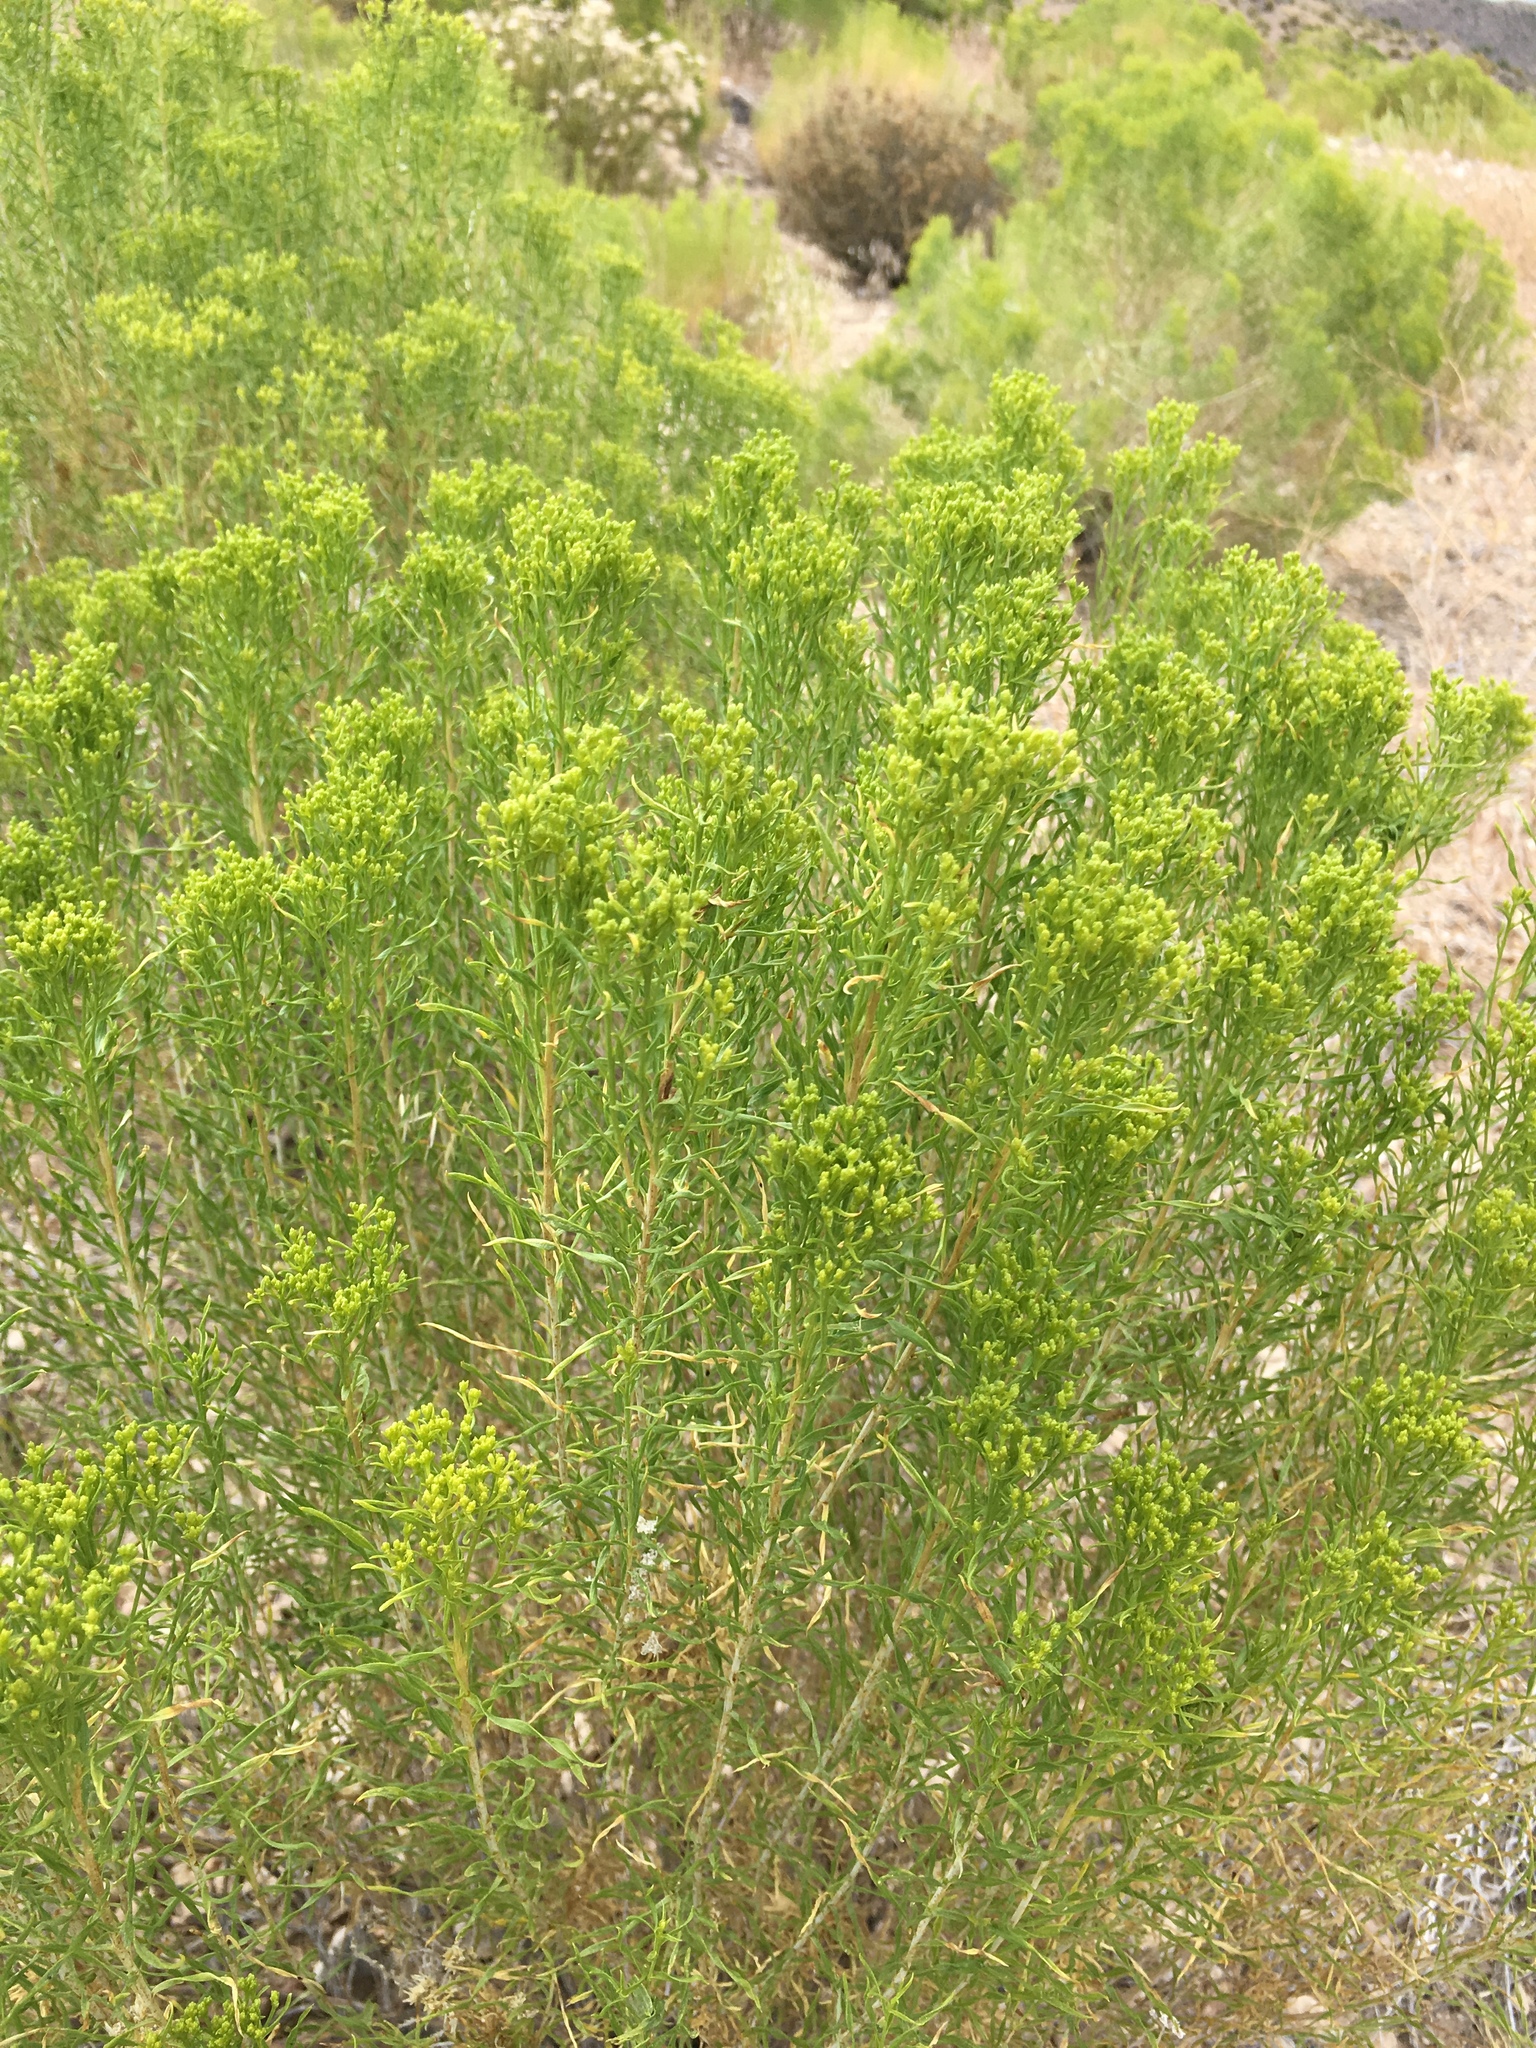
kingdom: Plantae
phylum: Tracheophyta
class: Magnoliopsida
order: Asterales
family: Asteraceae
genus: Chrysothamnus
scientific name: Chrysothamnus viscidiflorus
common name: Yellow rabbitbrush
